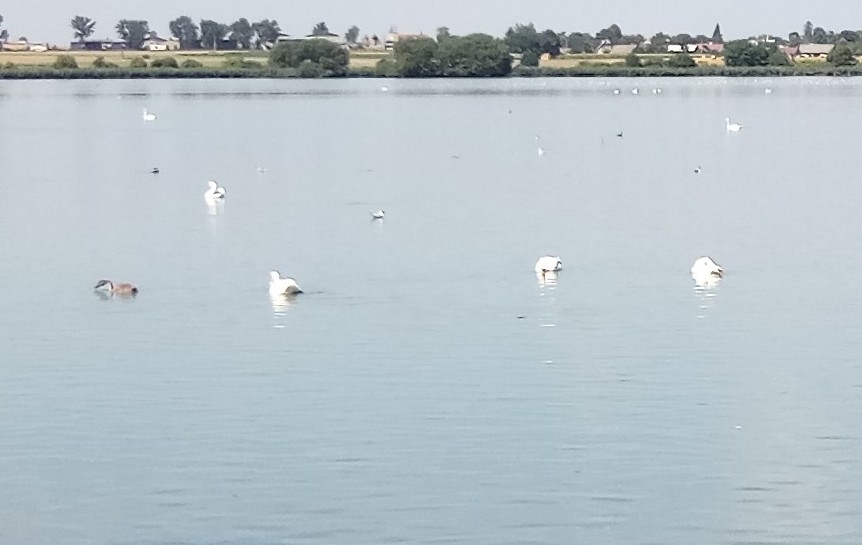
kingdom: Animalia
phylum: Chordata
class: Aves
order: Anseriformes
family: Anatidae
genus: Cygnus
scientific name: Cygnus olor
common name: Mute swan
